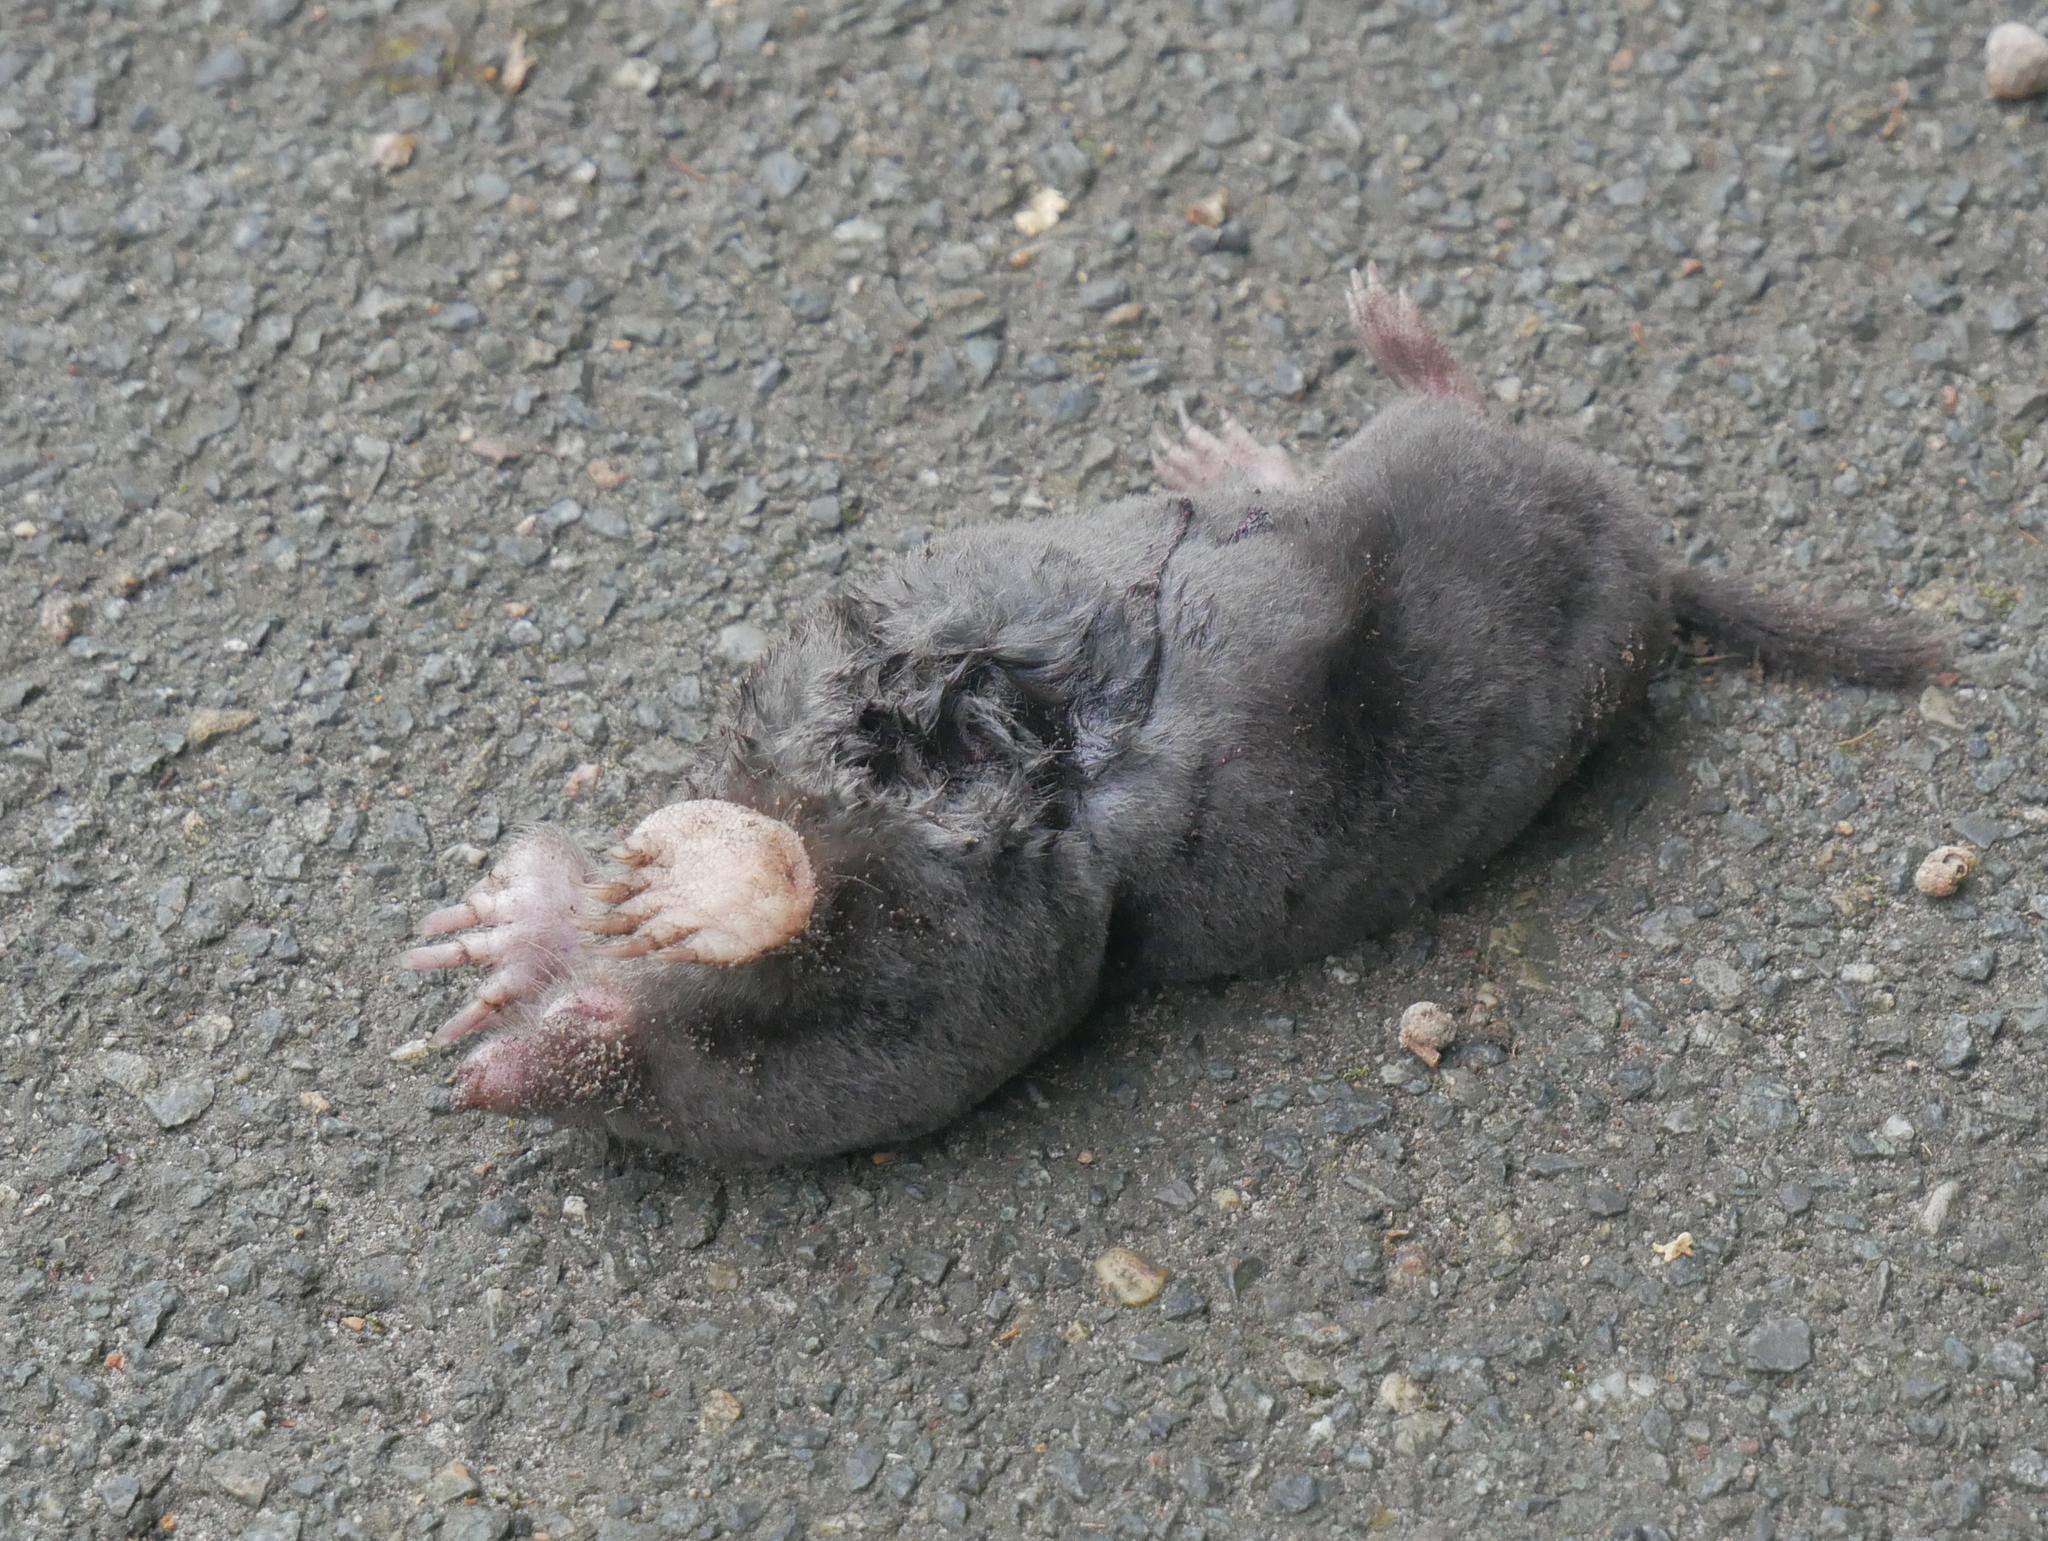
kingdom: Animalia
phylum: Chordata
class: Mammalia
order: Soricomorpha
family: Talpidae
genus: Talpa
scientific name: Talpa europaea
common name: European mole
